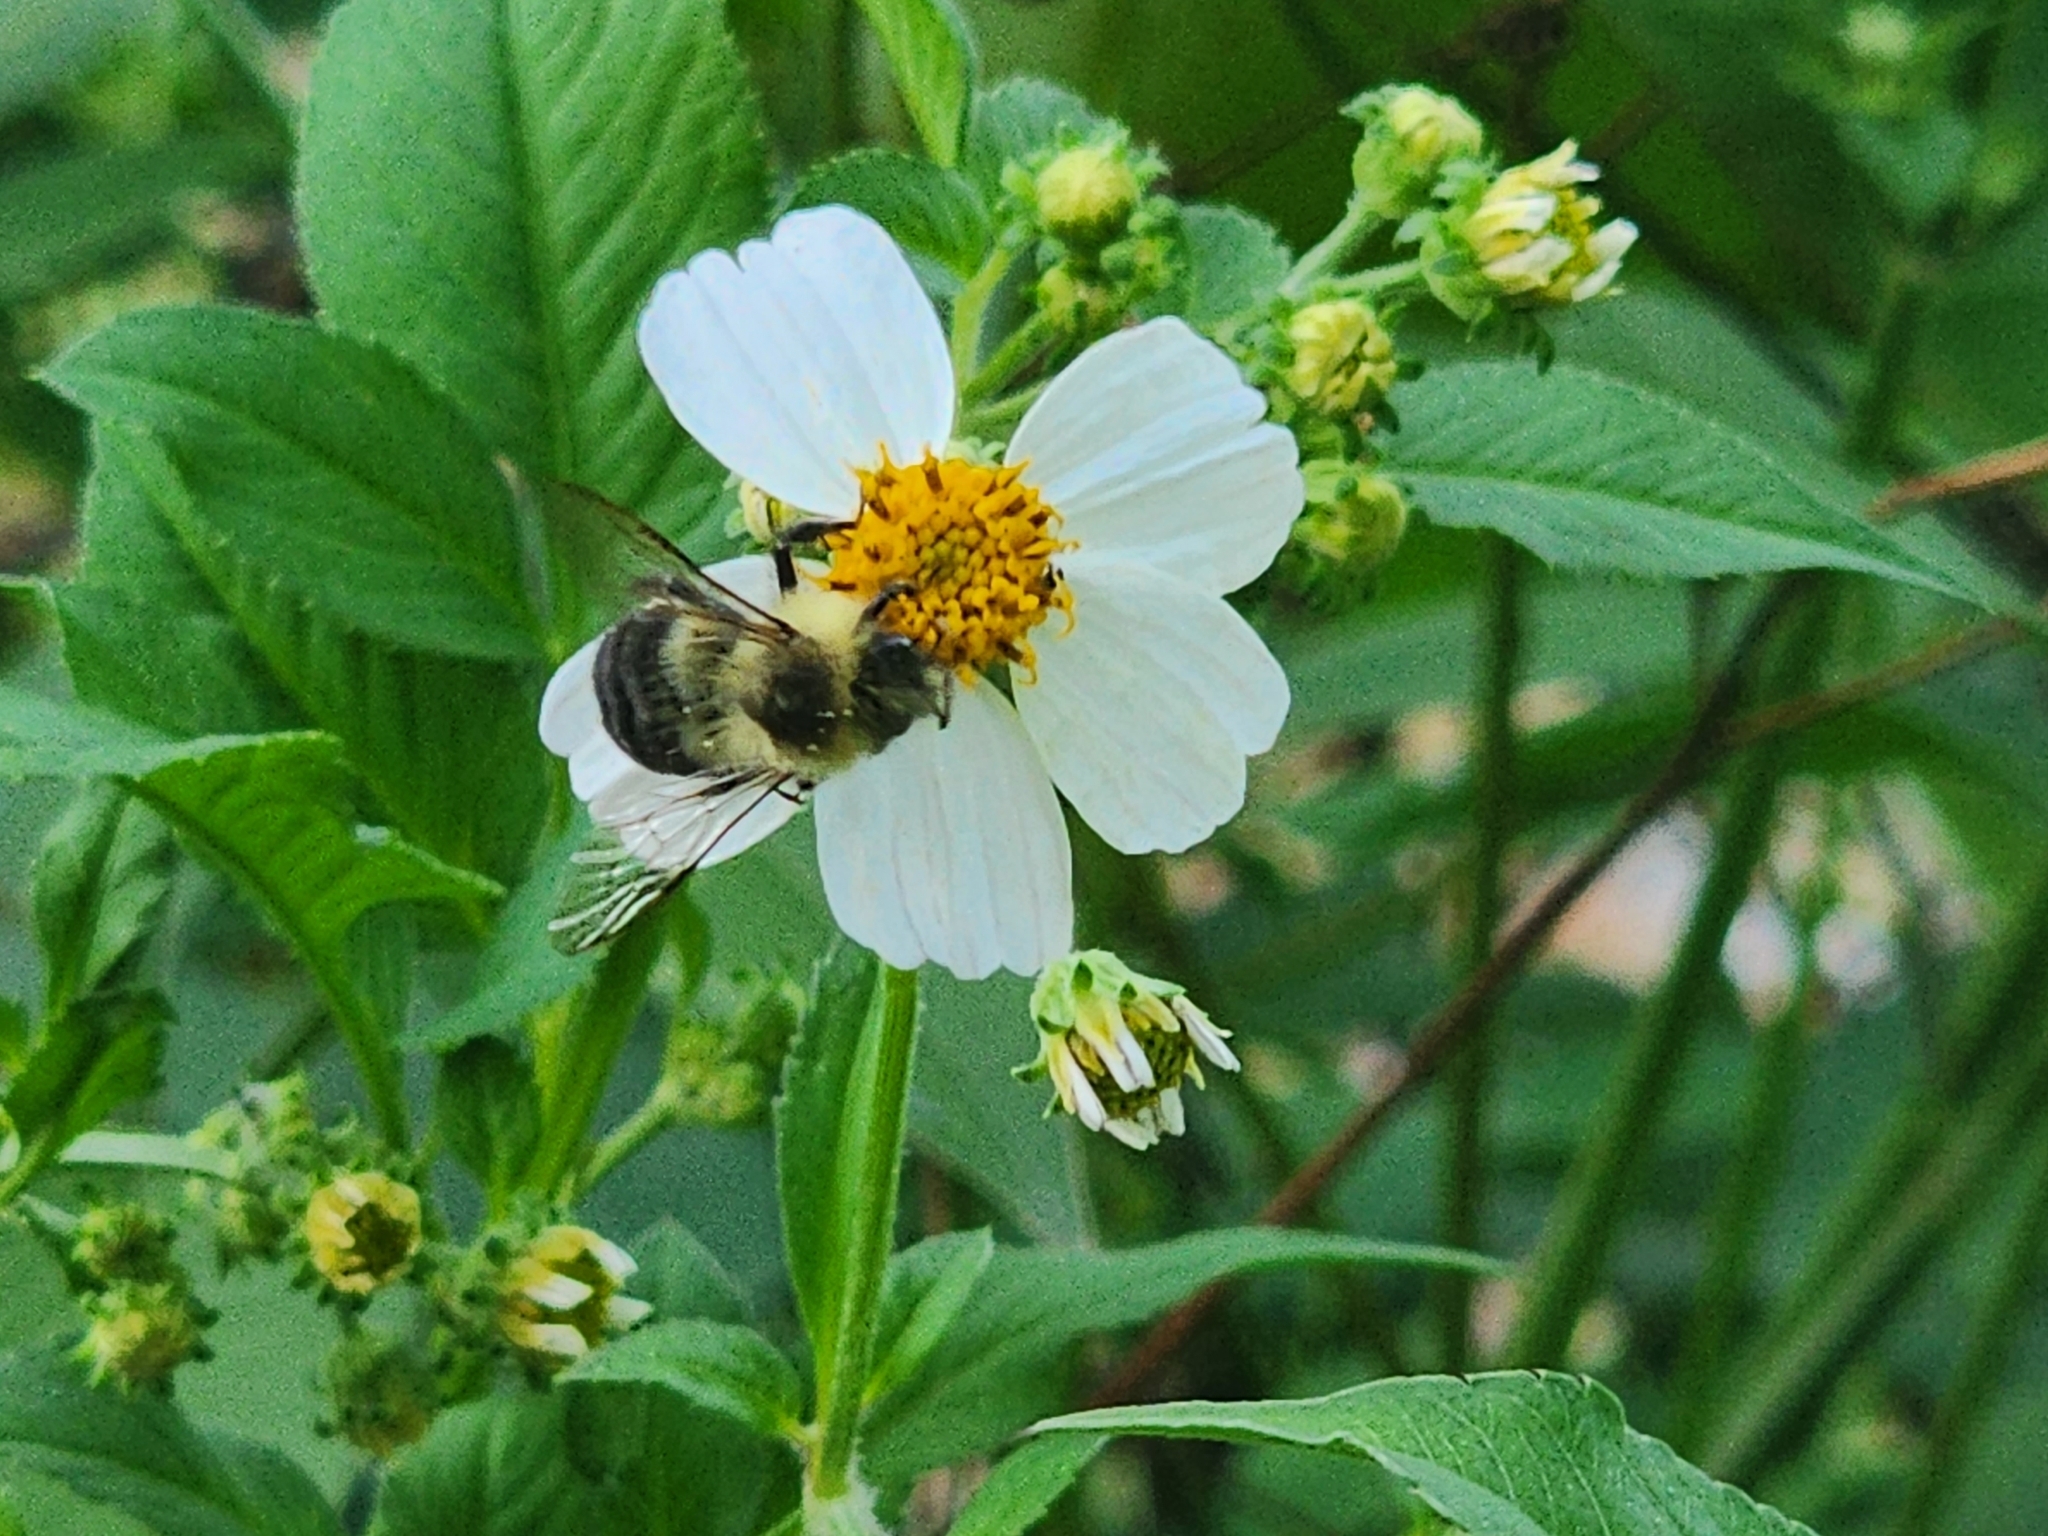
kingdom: Animalia
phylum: Arthropoda
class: Insecta
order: Hymenoptera
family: Apidae
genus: Bombus
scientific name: Bombus impatiens
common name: Common eastern bumble bee
